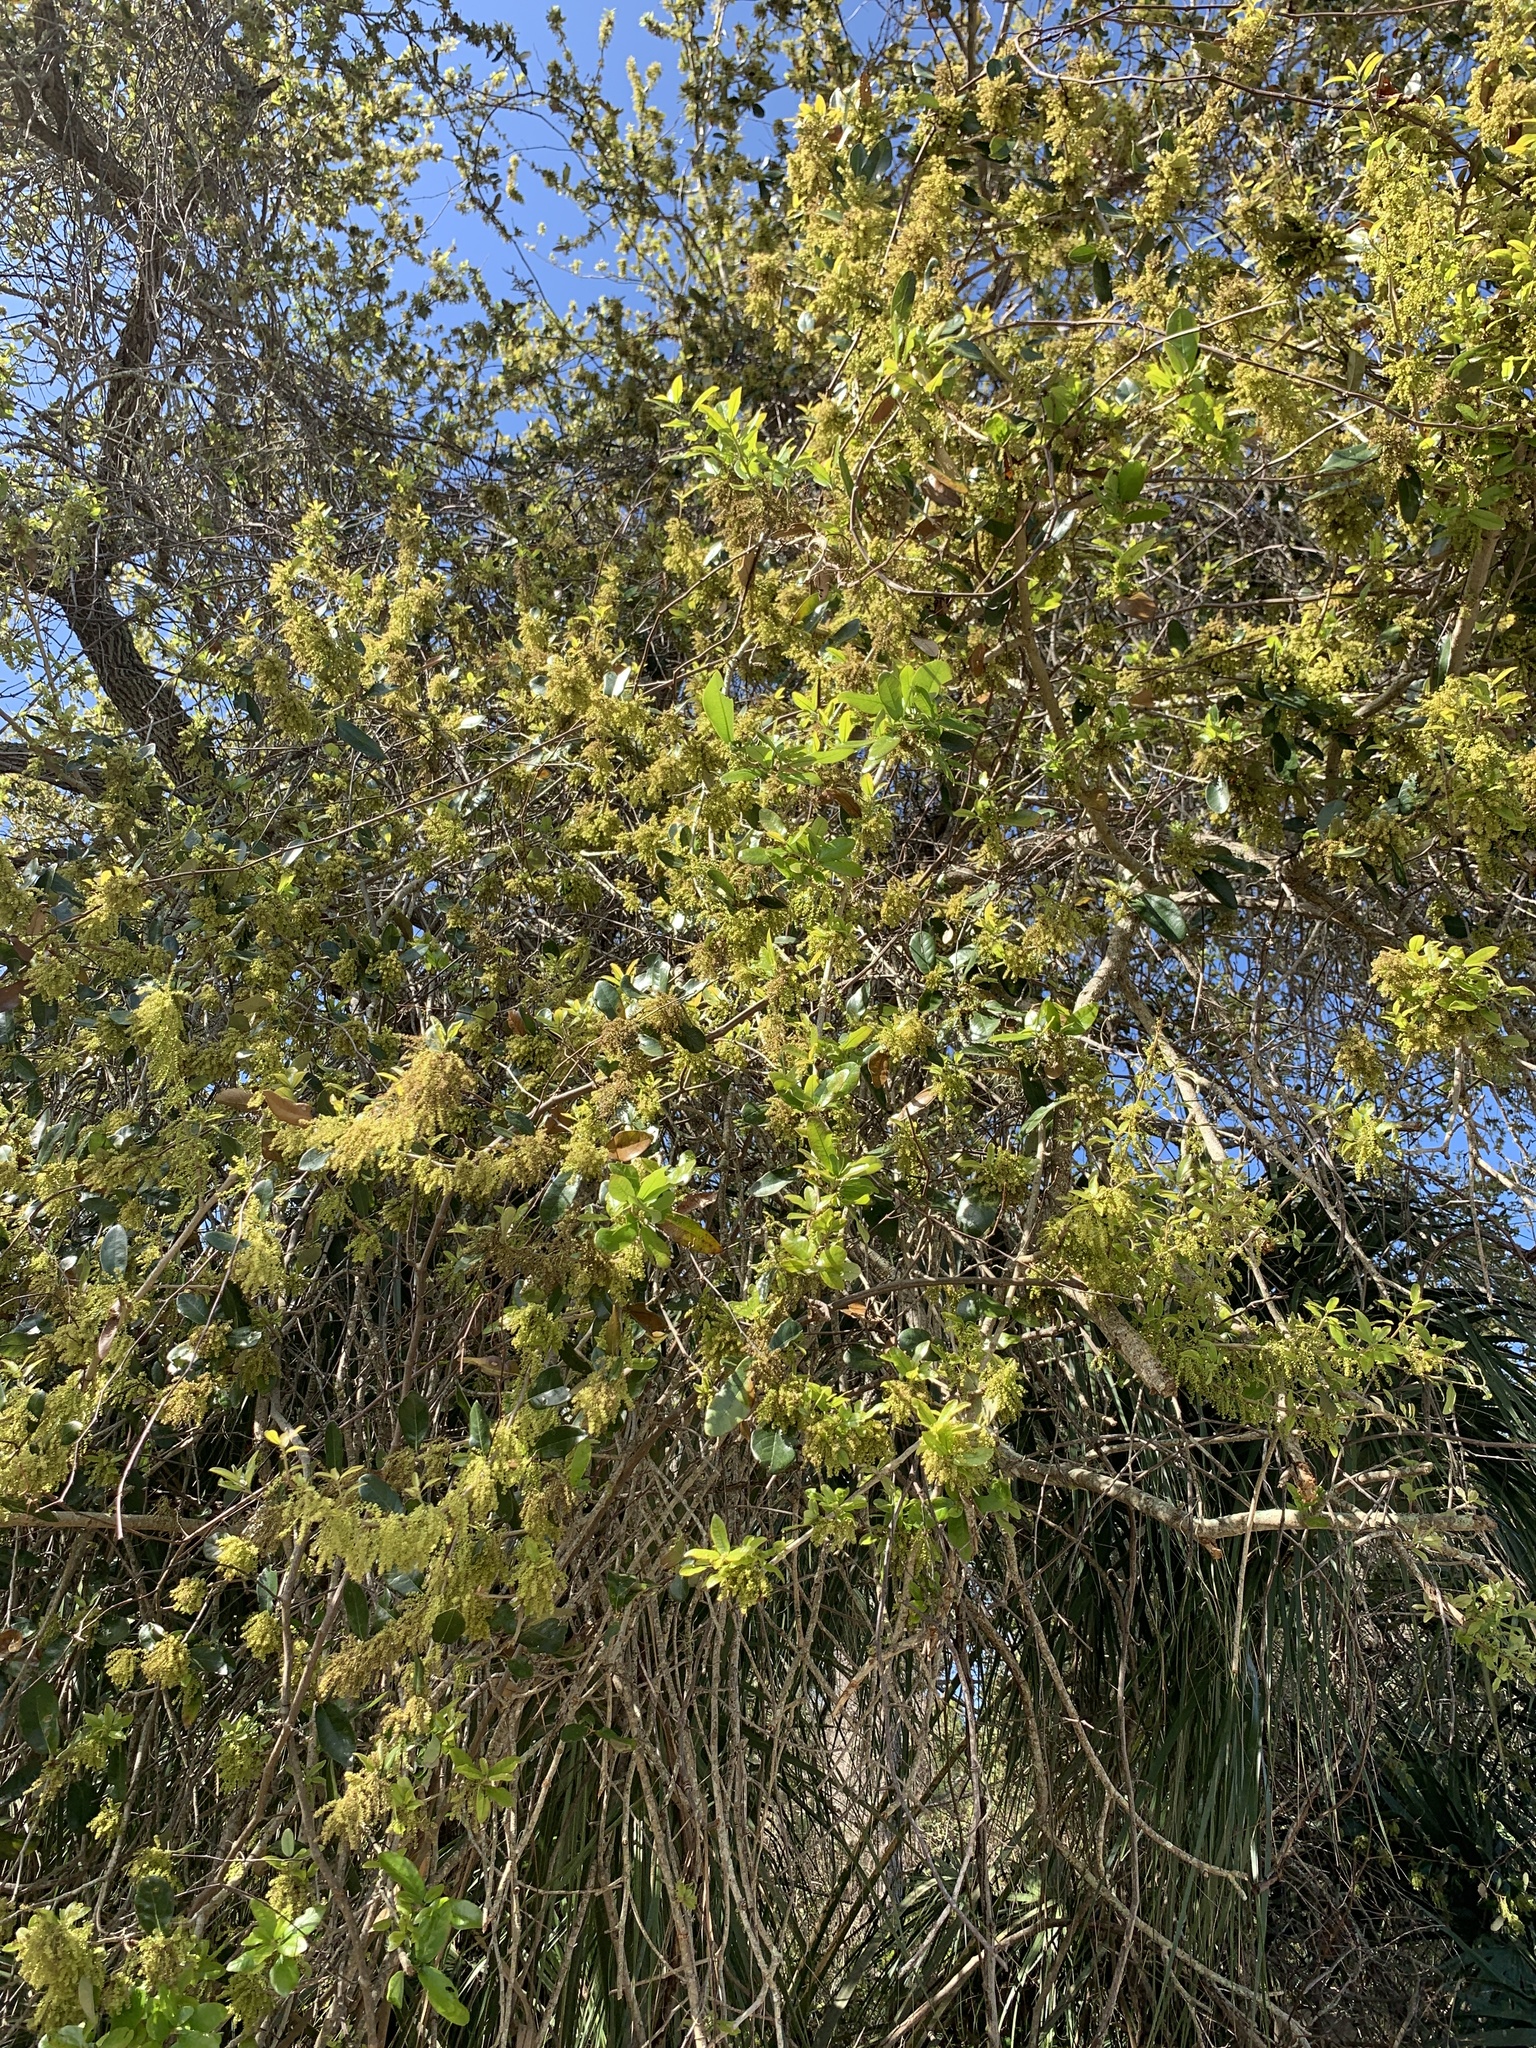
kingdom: Plantae
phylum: Tracheophyta
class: Magnoliopsida
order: Fagales
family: Fagaceae
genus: Quercus
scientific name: Quercus virginiana
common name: Southern live oak
